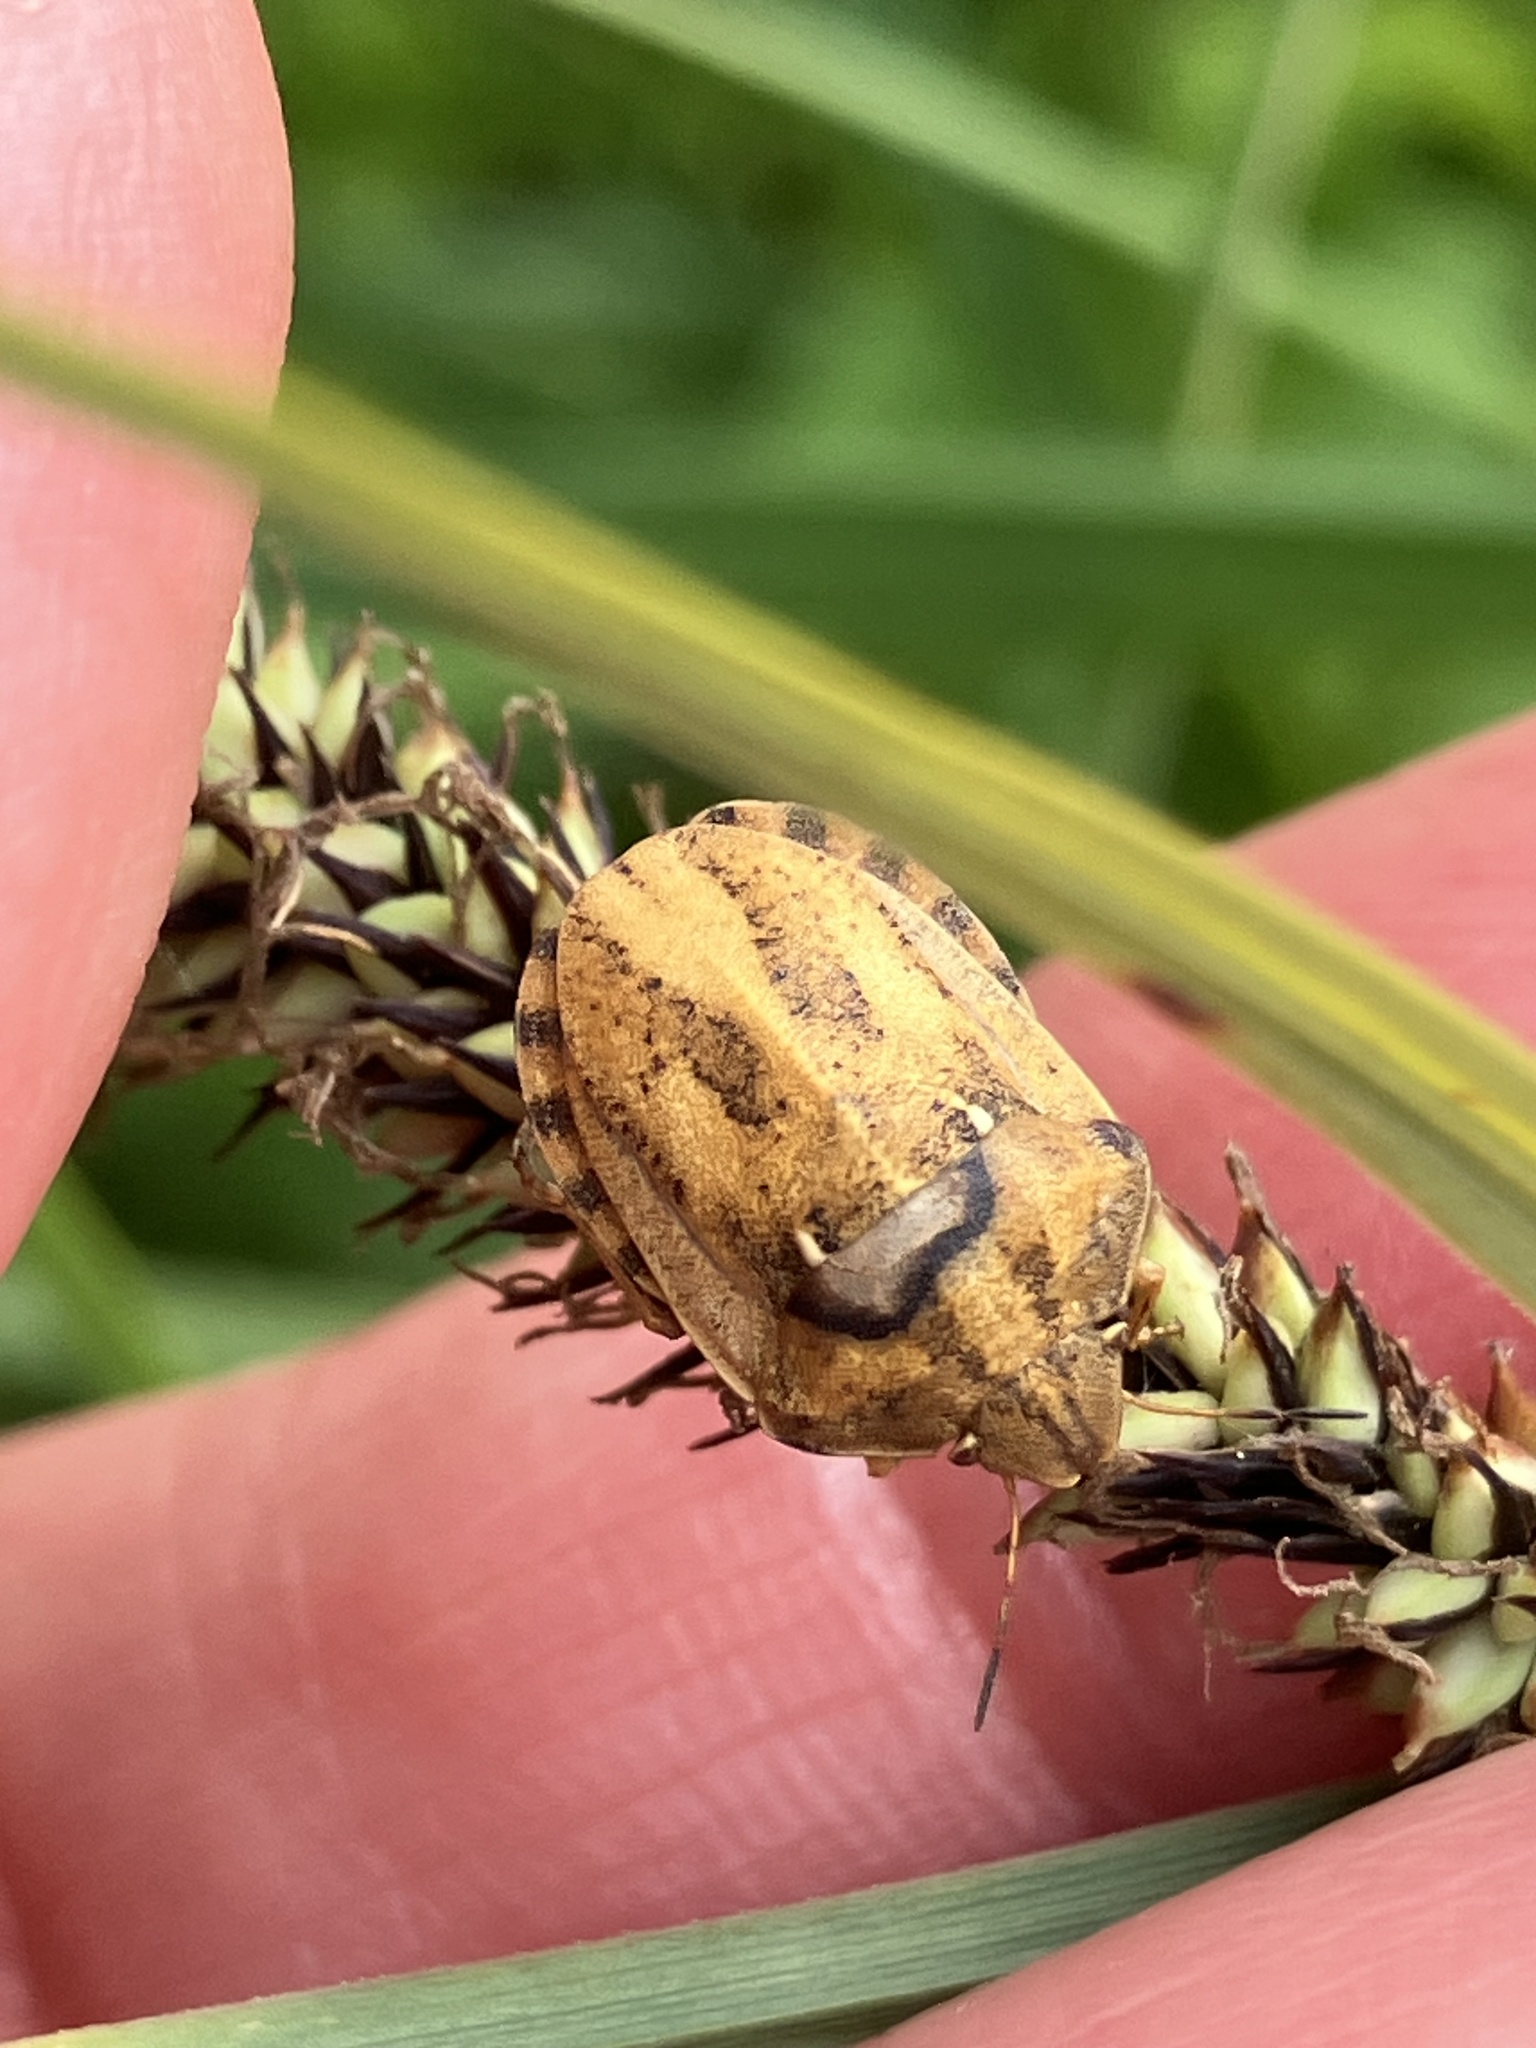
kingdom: Animalia
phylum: Arthropoda
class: Insecta
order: Hemiptera
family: Scutelleridae
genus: Eurygaster
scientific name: Eurygaster testudinaria
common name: Tortoise bug
